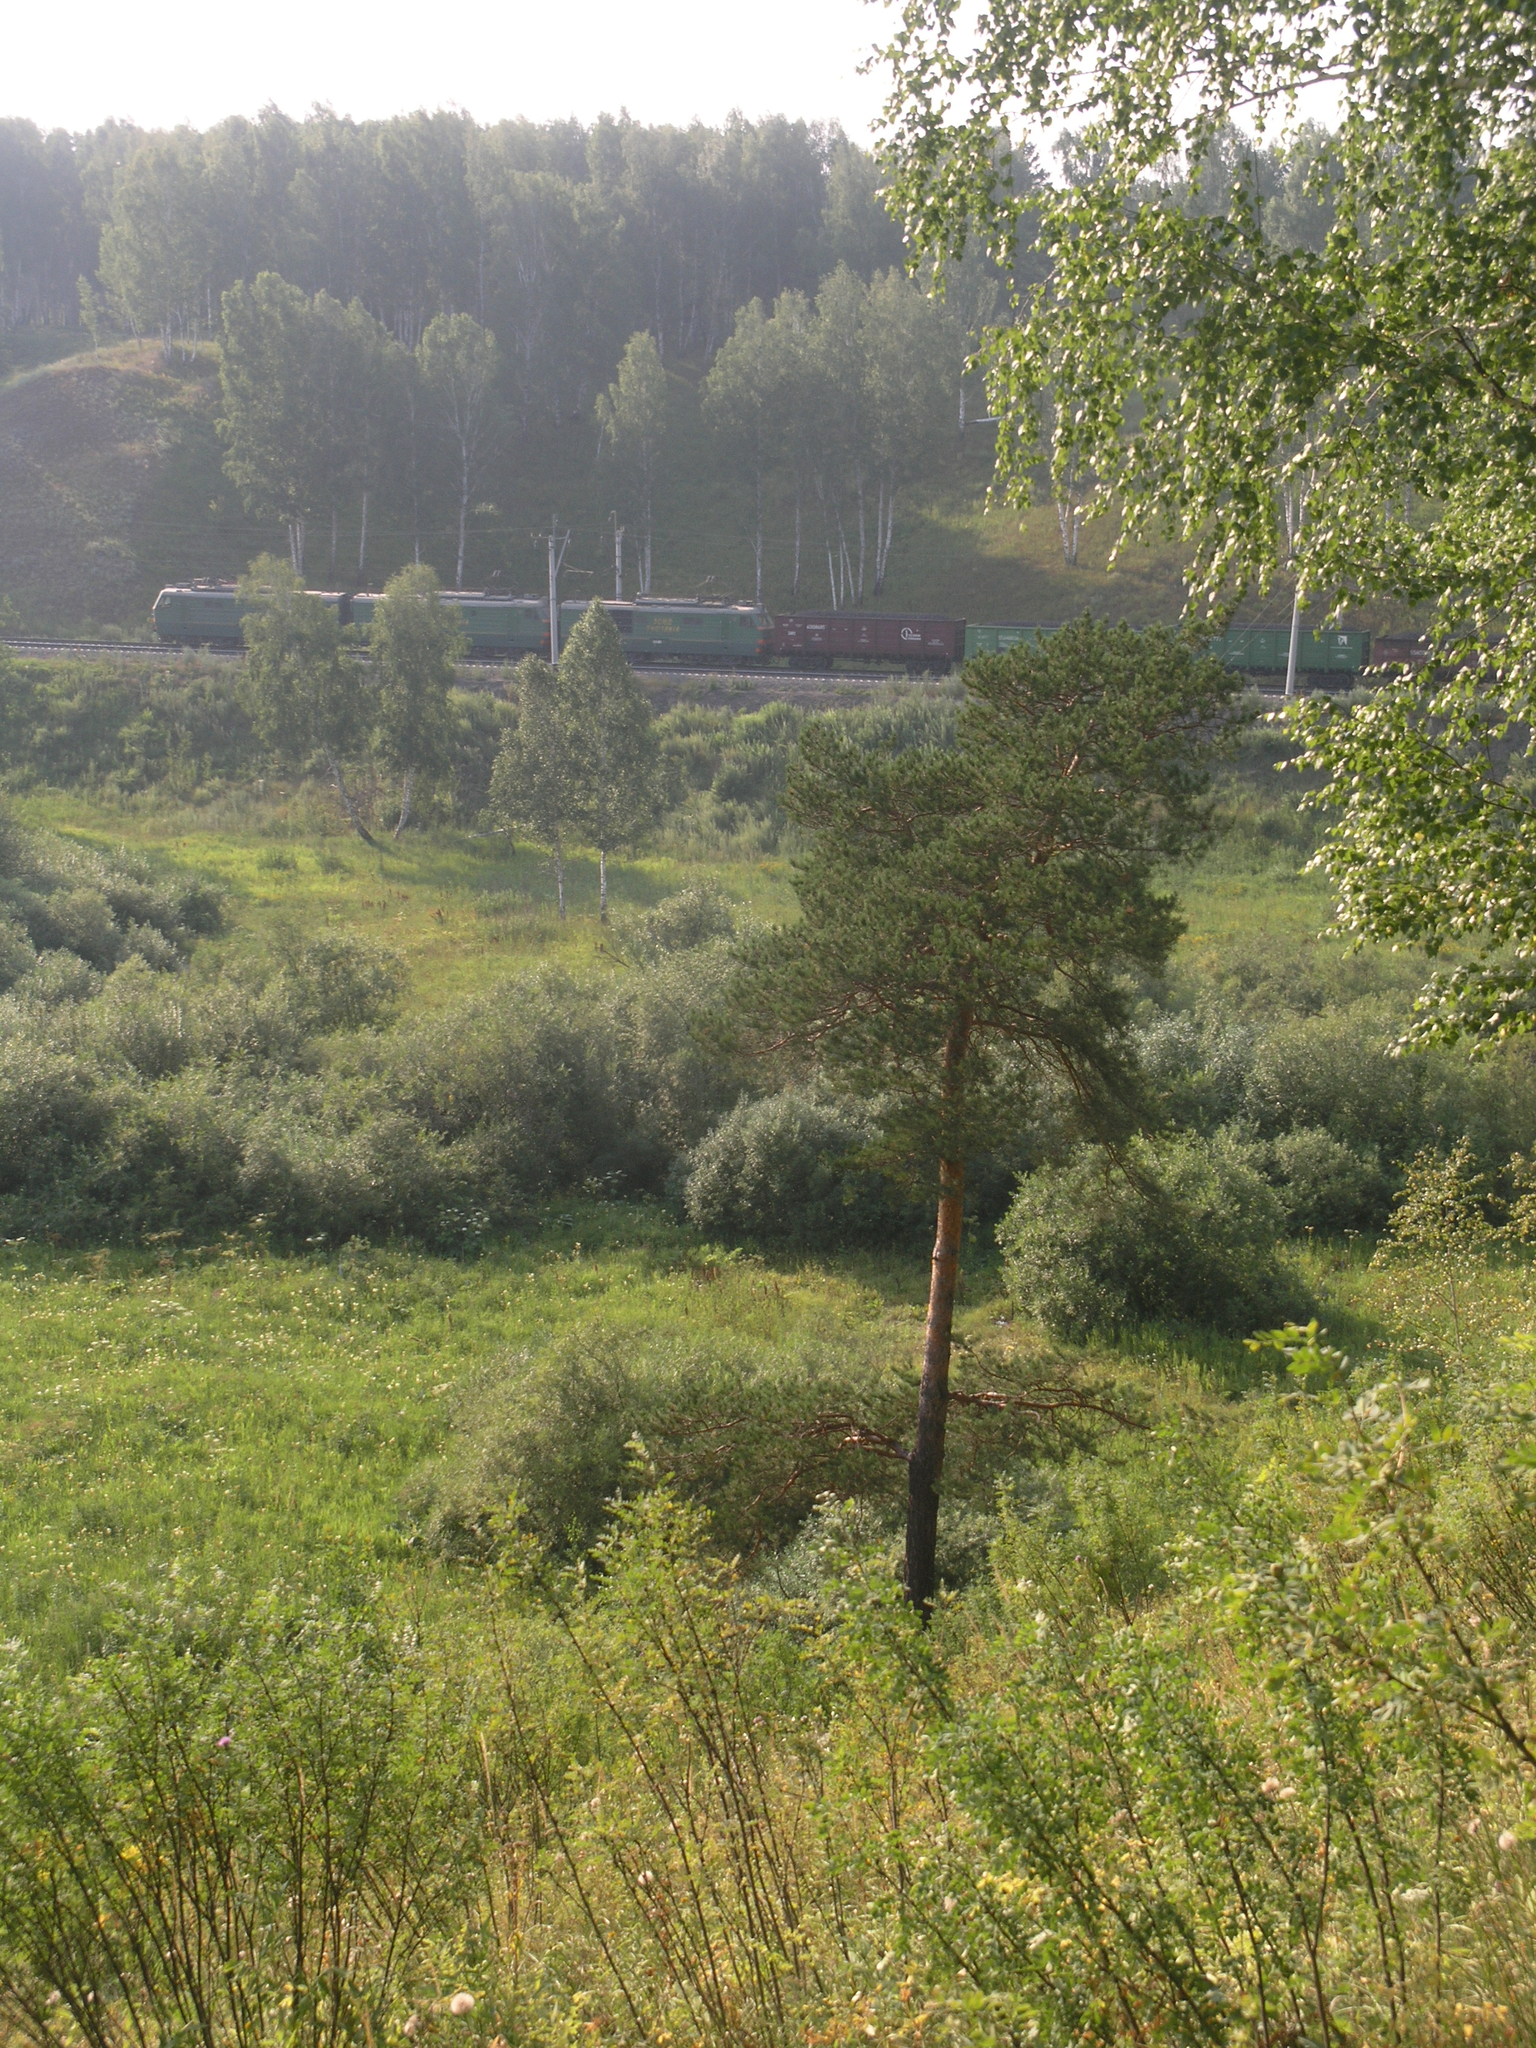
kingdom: Plantae
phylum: Tracheophyta
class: Pinopsida
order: Pinales
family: Pinaceae
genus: Pinus
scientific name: Pinus sylvestris
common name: Scots pine
